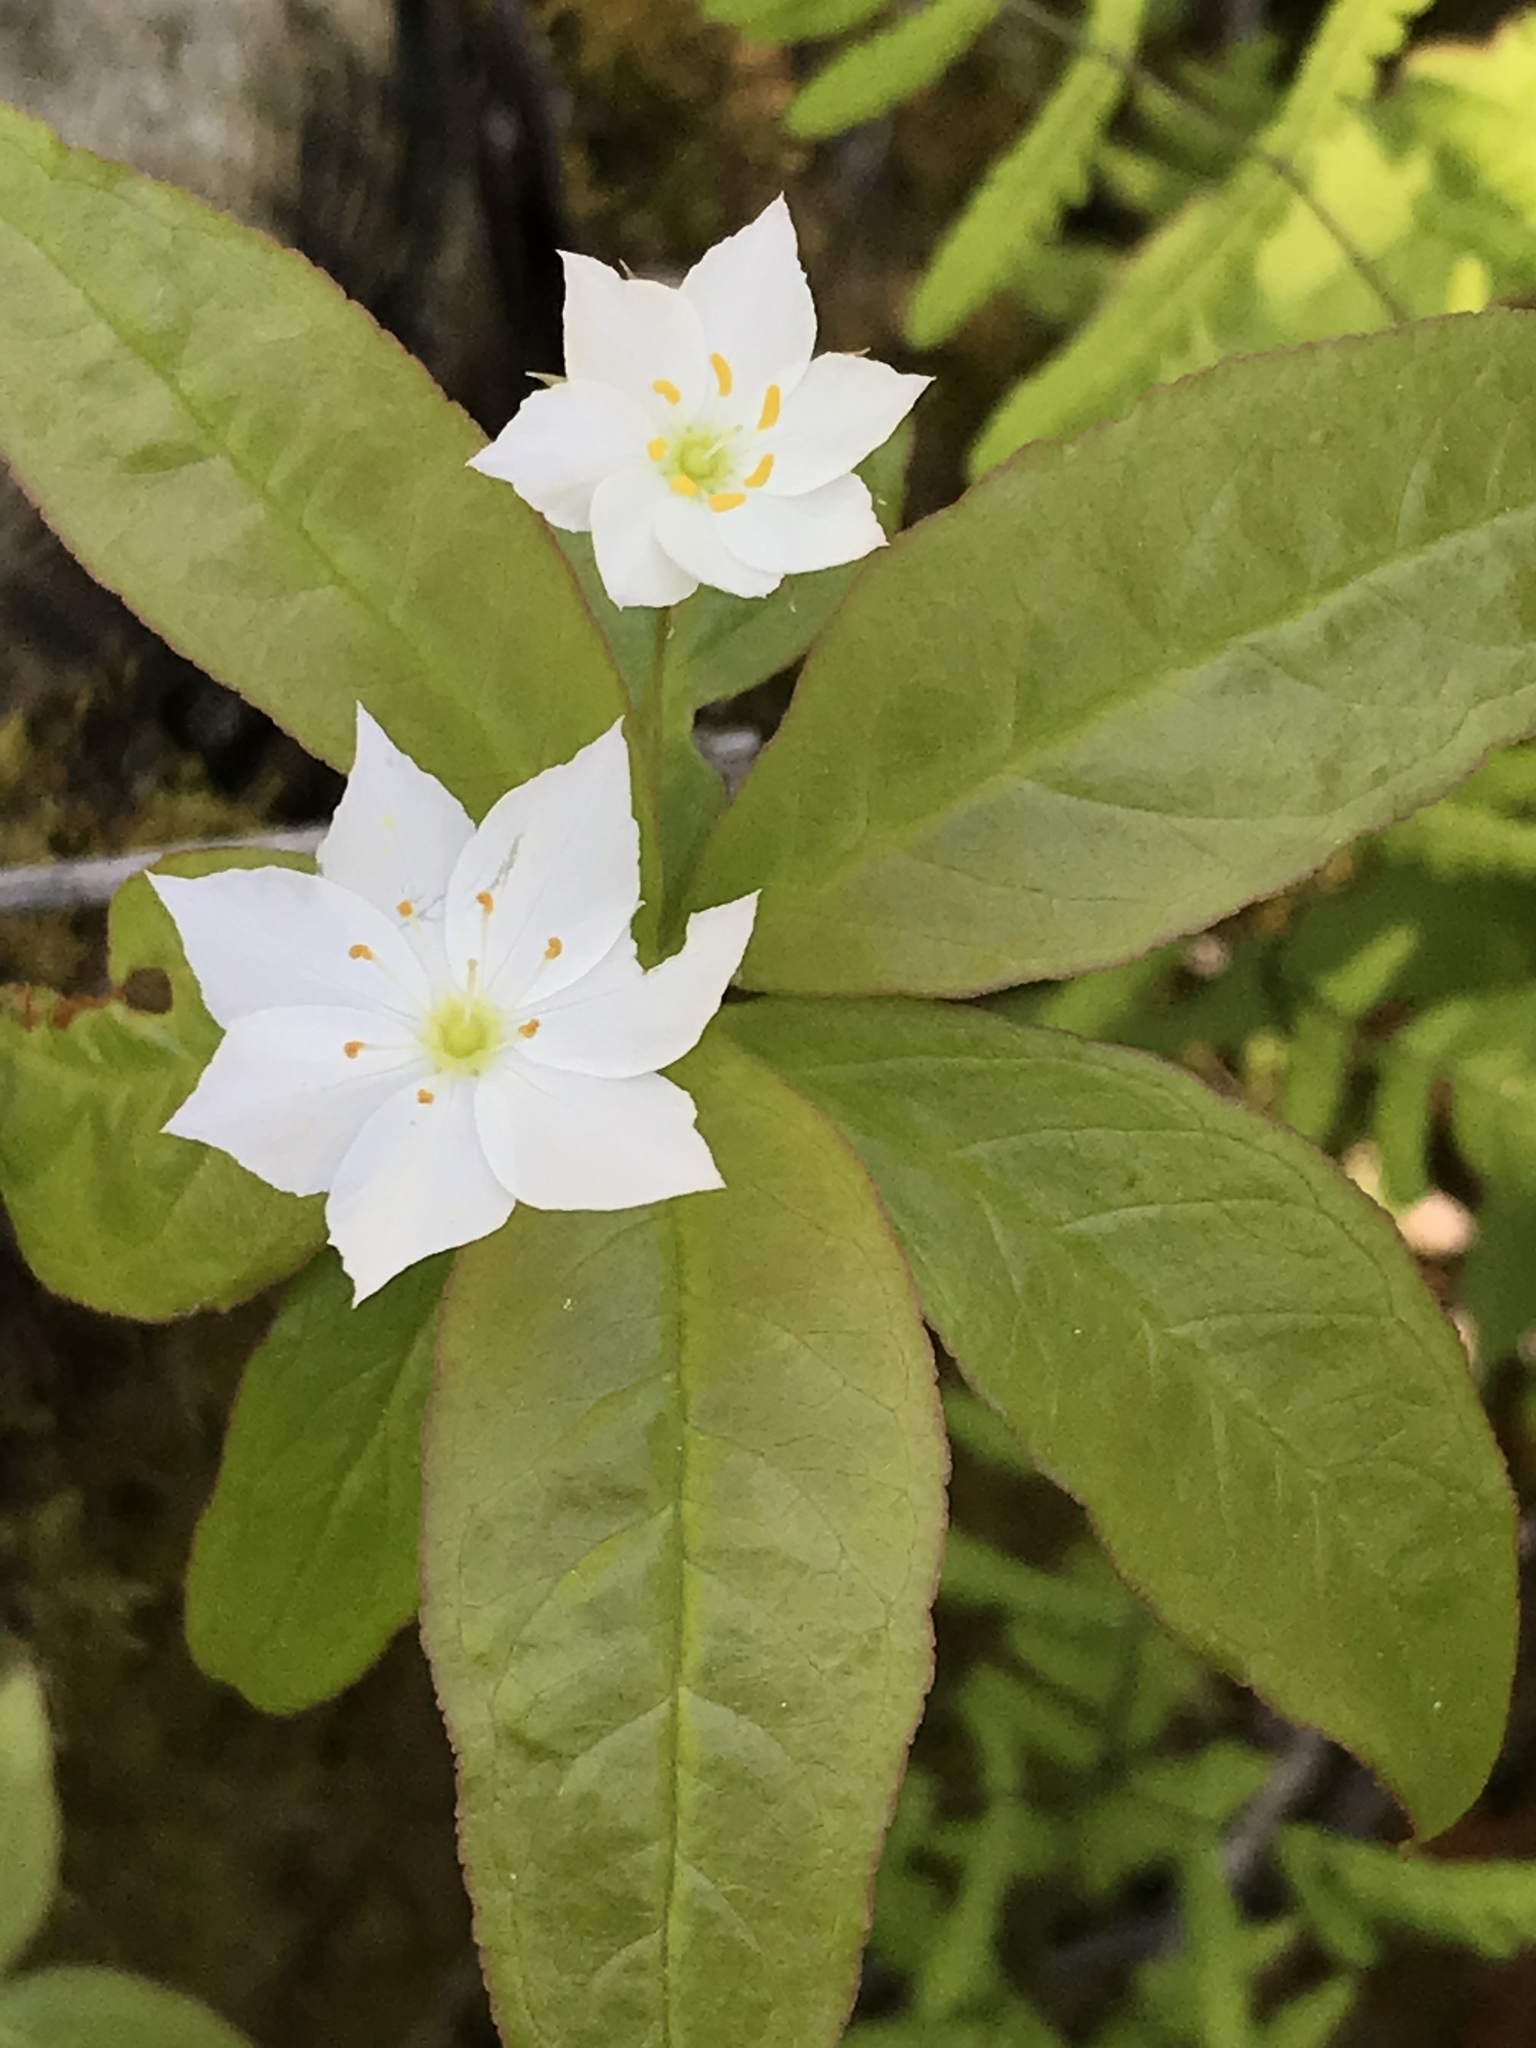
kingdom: Plantae
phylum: Tracheophyta
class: Magnoliopsida
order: Ericales
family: Primulaceae
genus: Lysimachia
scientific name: Lysimachia borealis
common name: American starflower
